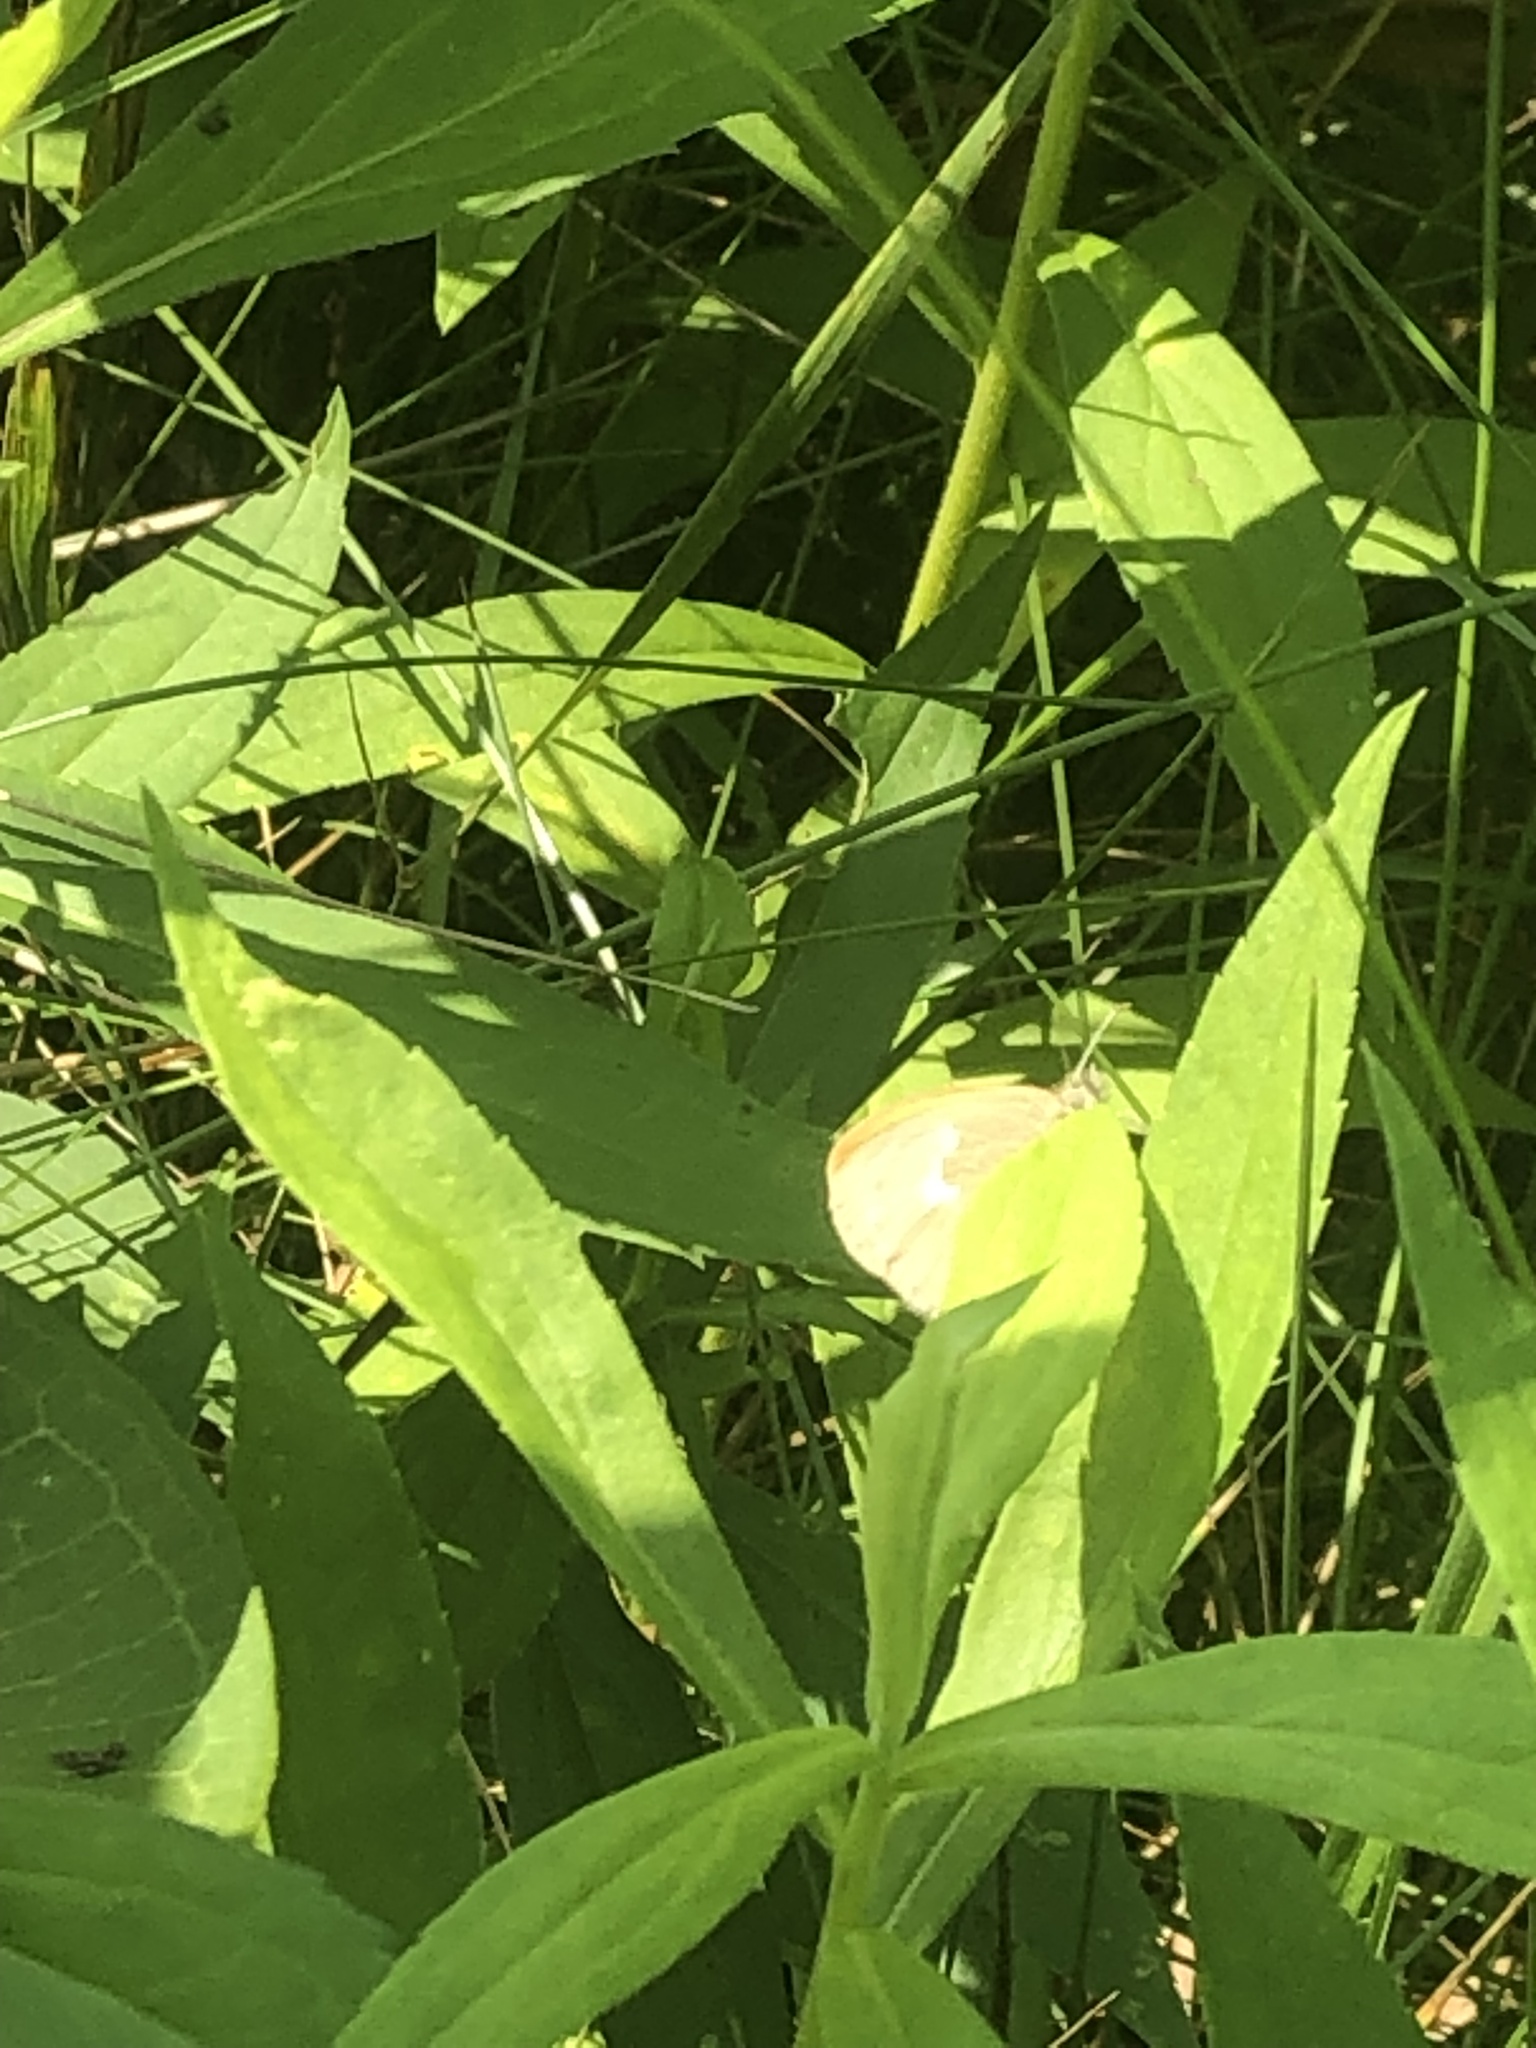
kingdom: Animalia
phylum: Arthropoda
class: Insecta
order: Lepidoptera
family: Nymphalidae
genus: Coenonympha
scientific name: Coenonympha california
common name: Common ringlet
